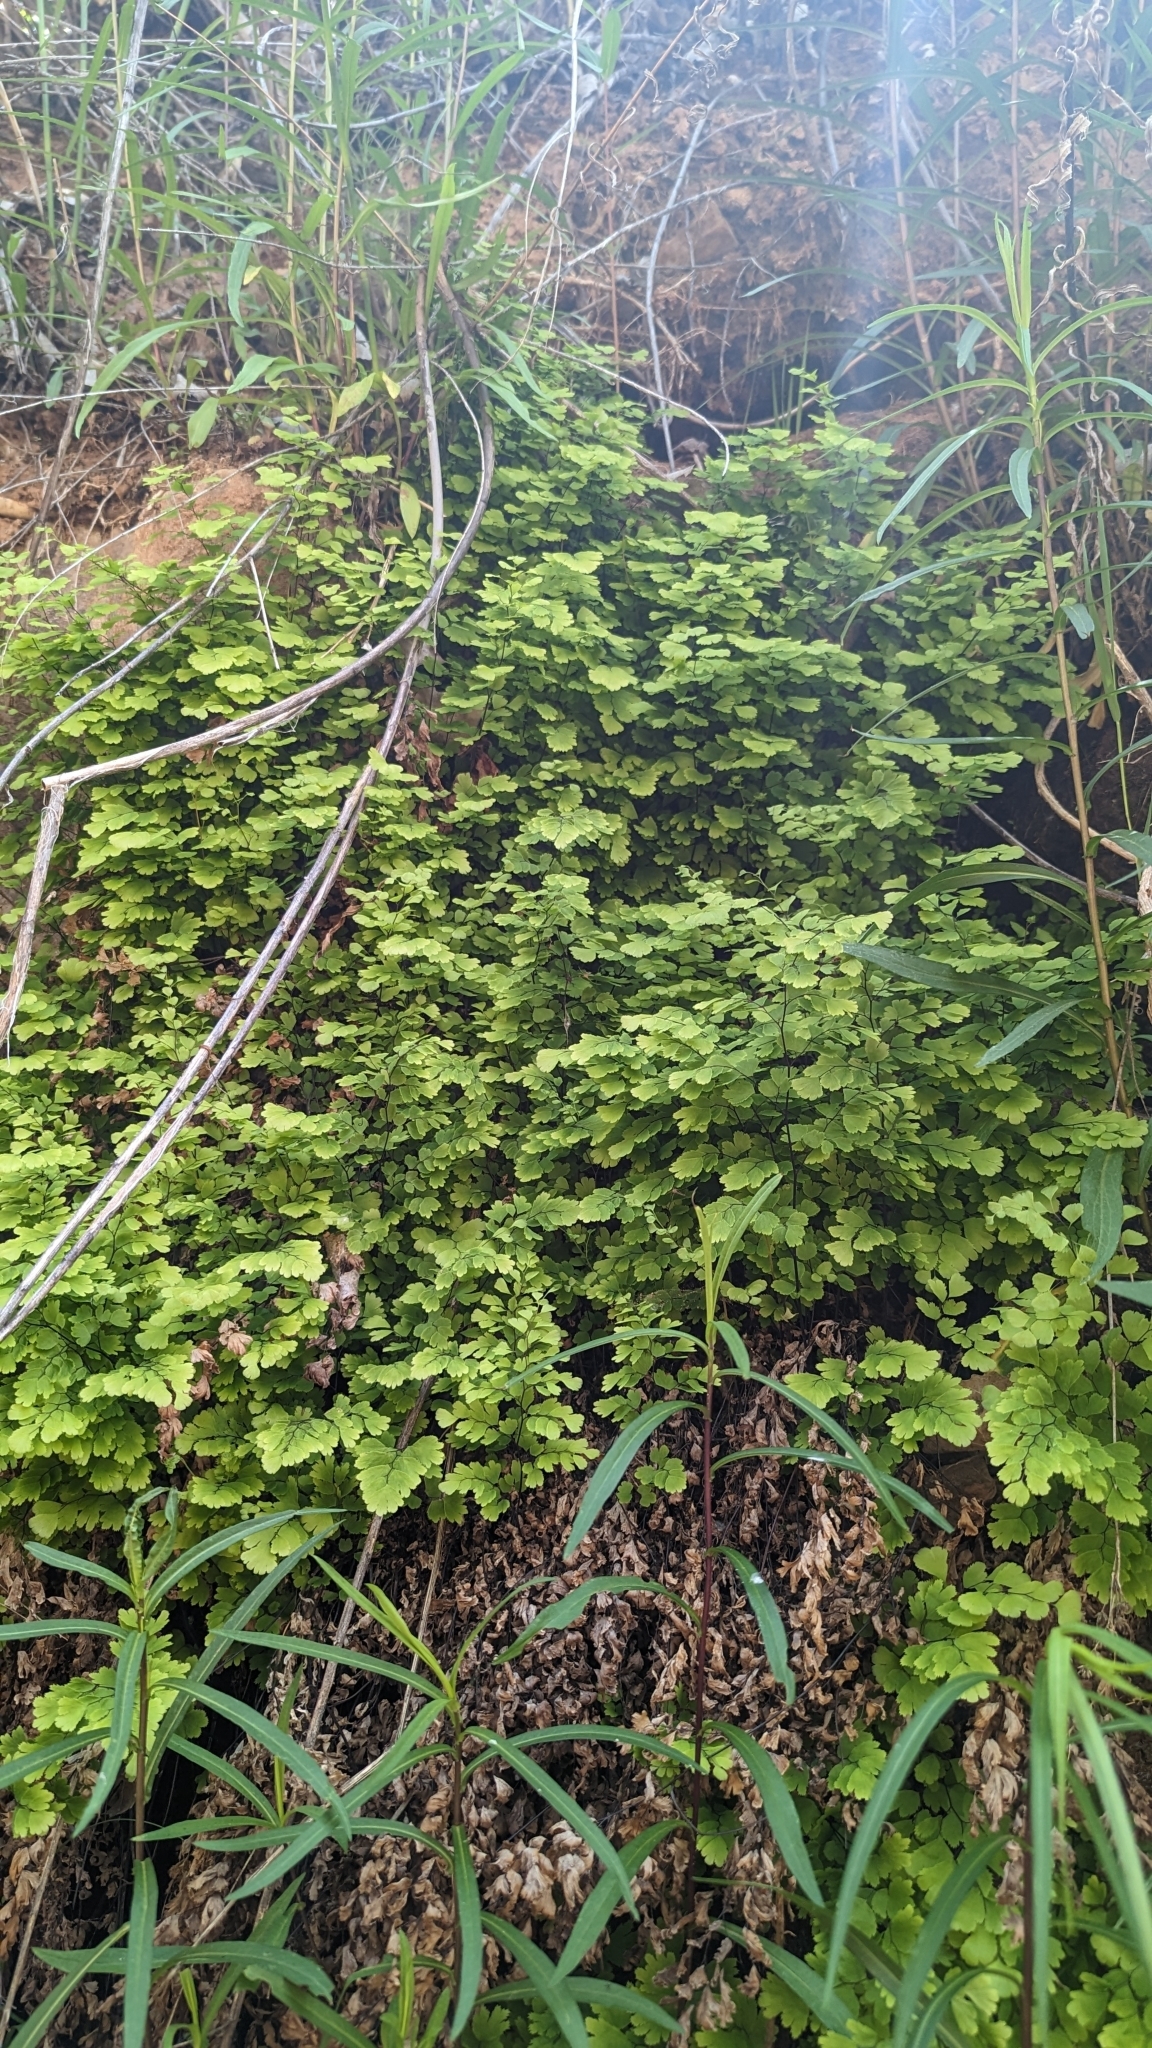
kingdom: Plantae
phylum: Tracheophyta
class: Polypodiopsida
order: Polypodiales
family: Pteridaceae
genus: Adiantum
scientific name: Adiantum capillus-veneris
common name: Maidenhair fern
